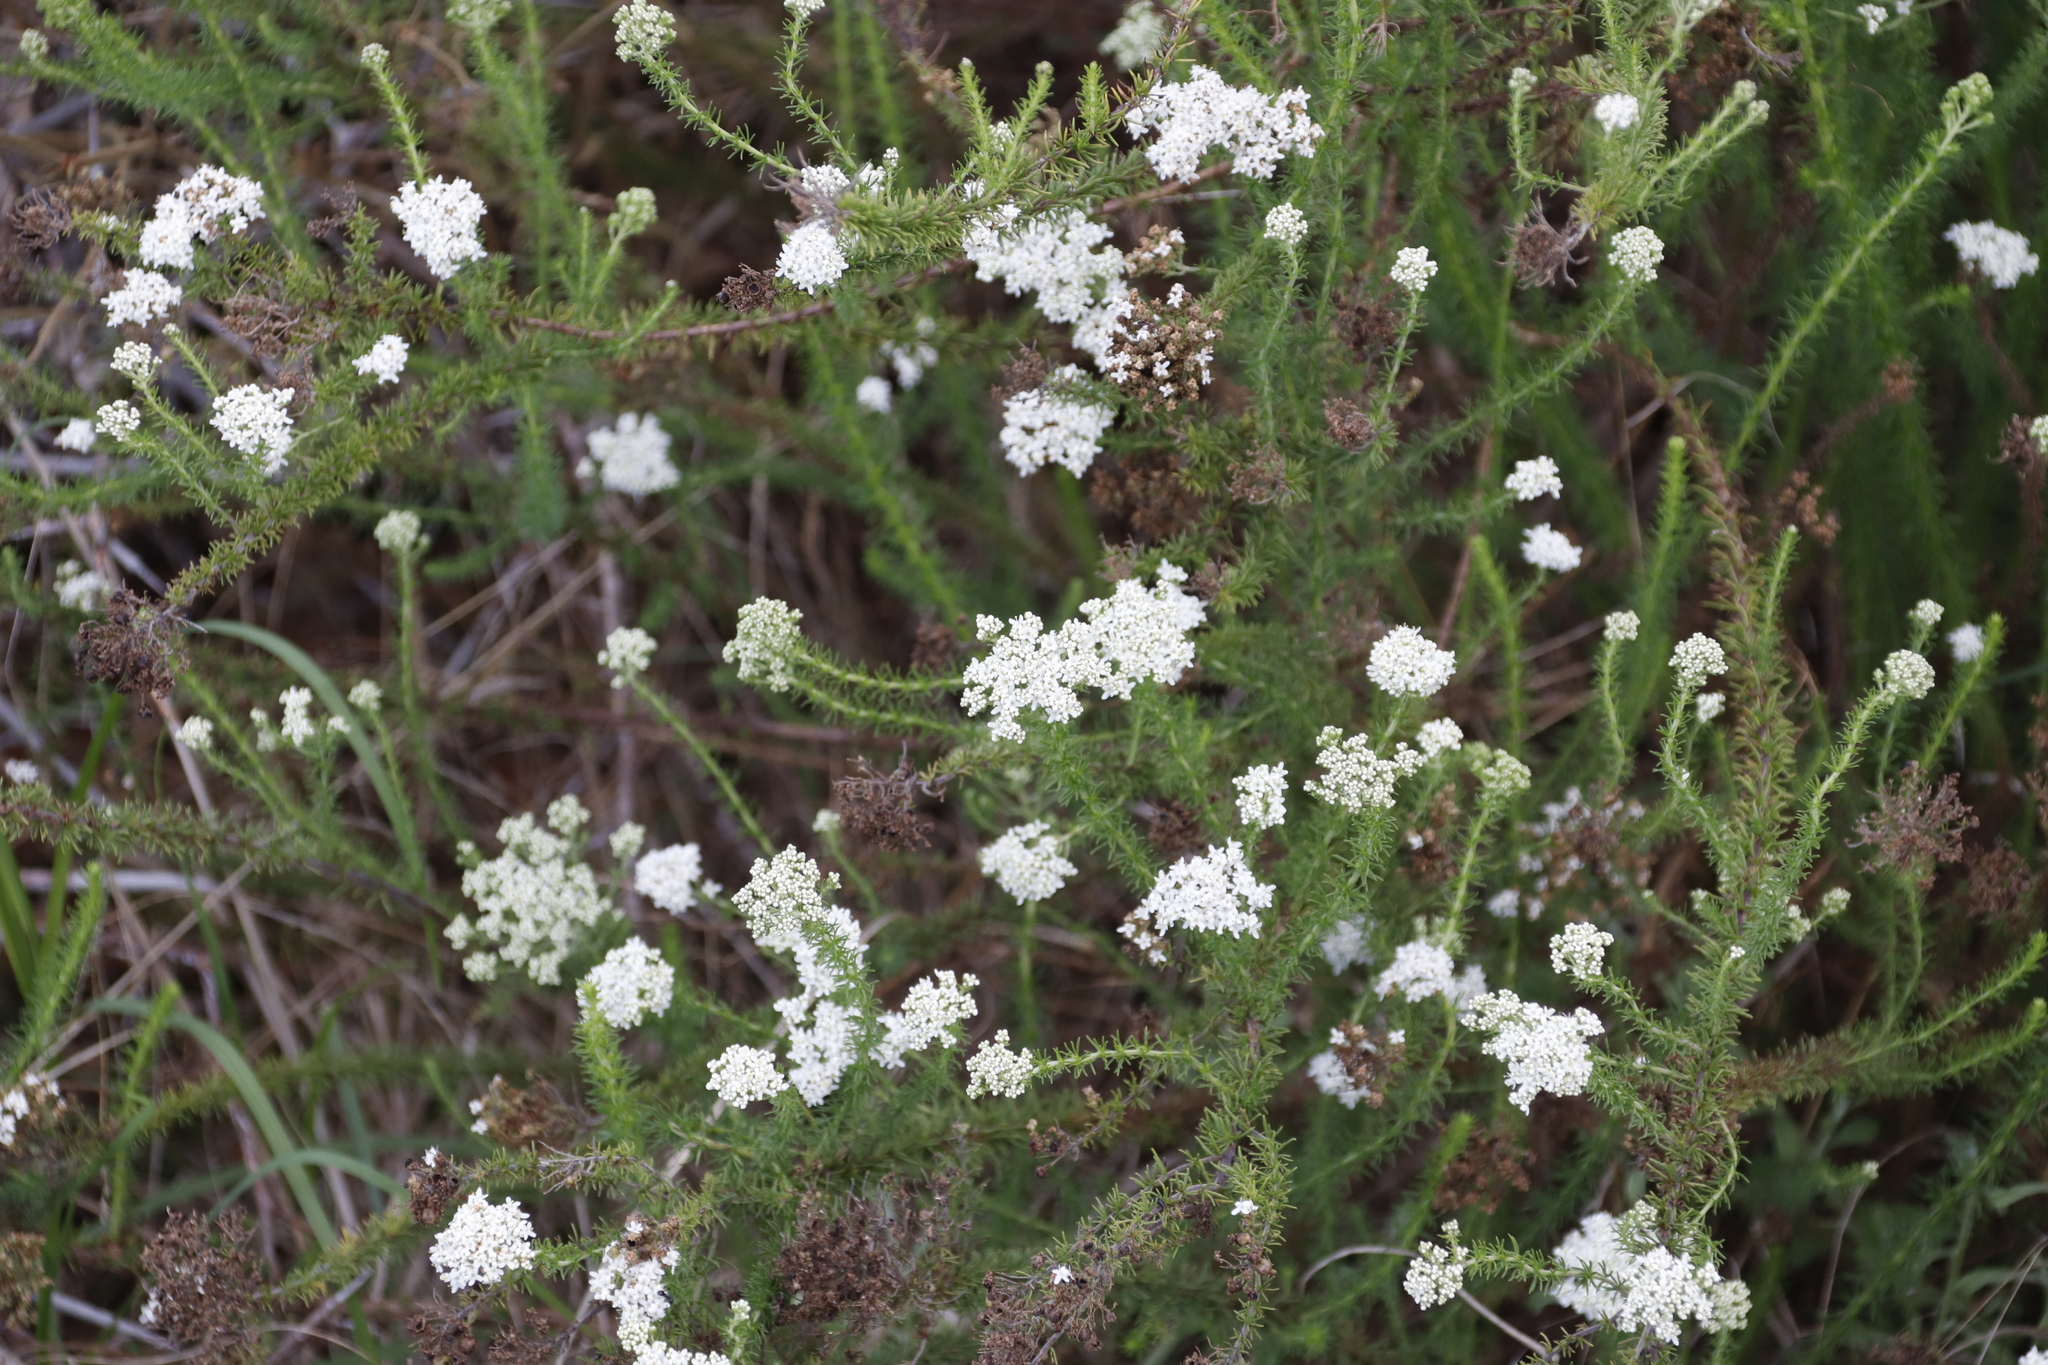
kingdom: Plantae
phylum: Tracheophyta
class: Magnoliopsida
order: Lamiales
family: Scrophulariaceae
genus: Selago
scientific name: Selago corymbosa
